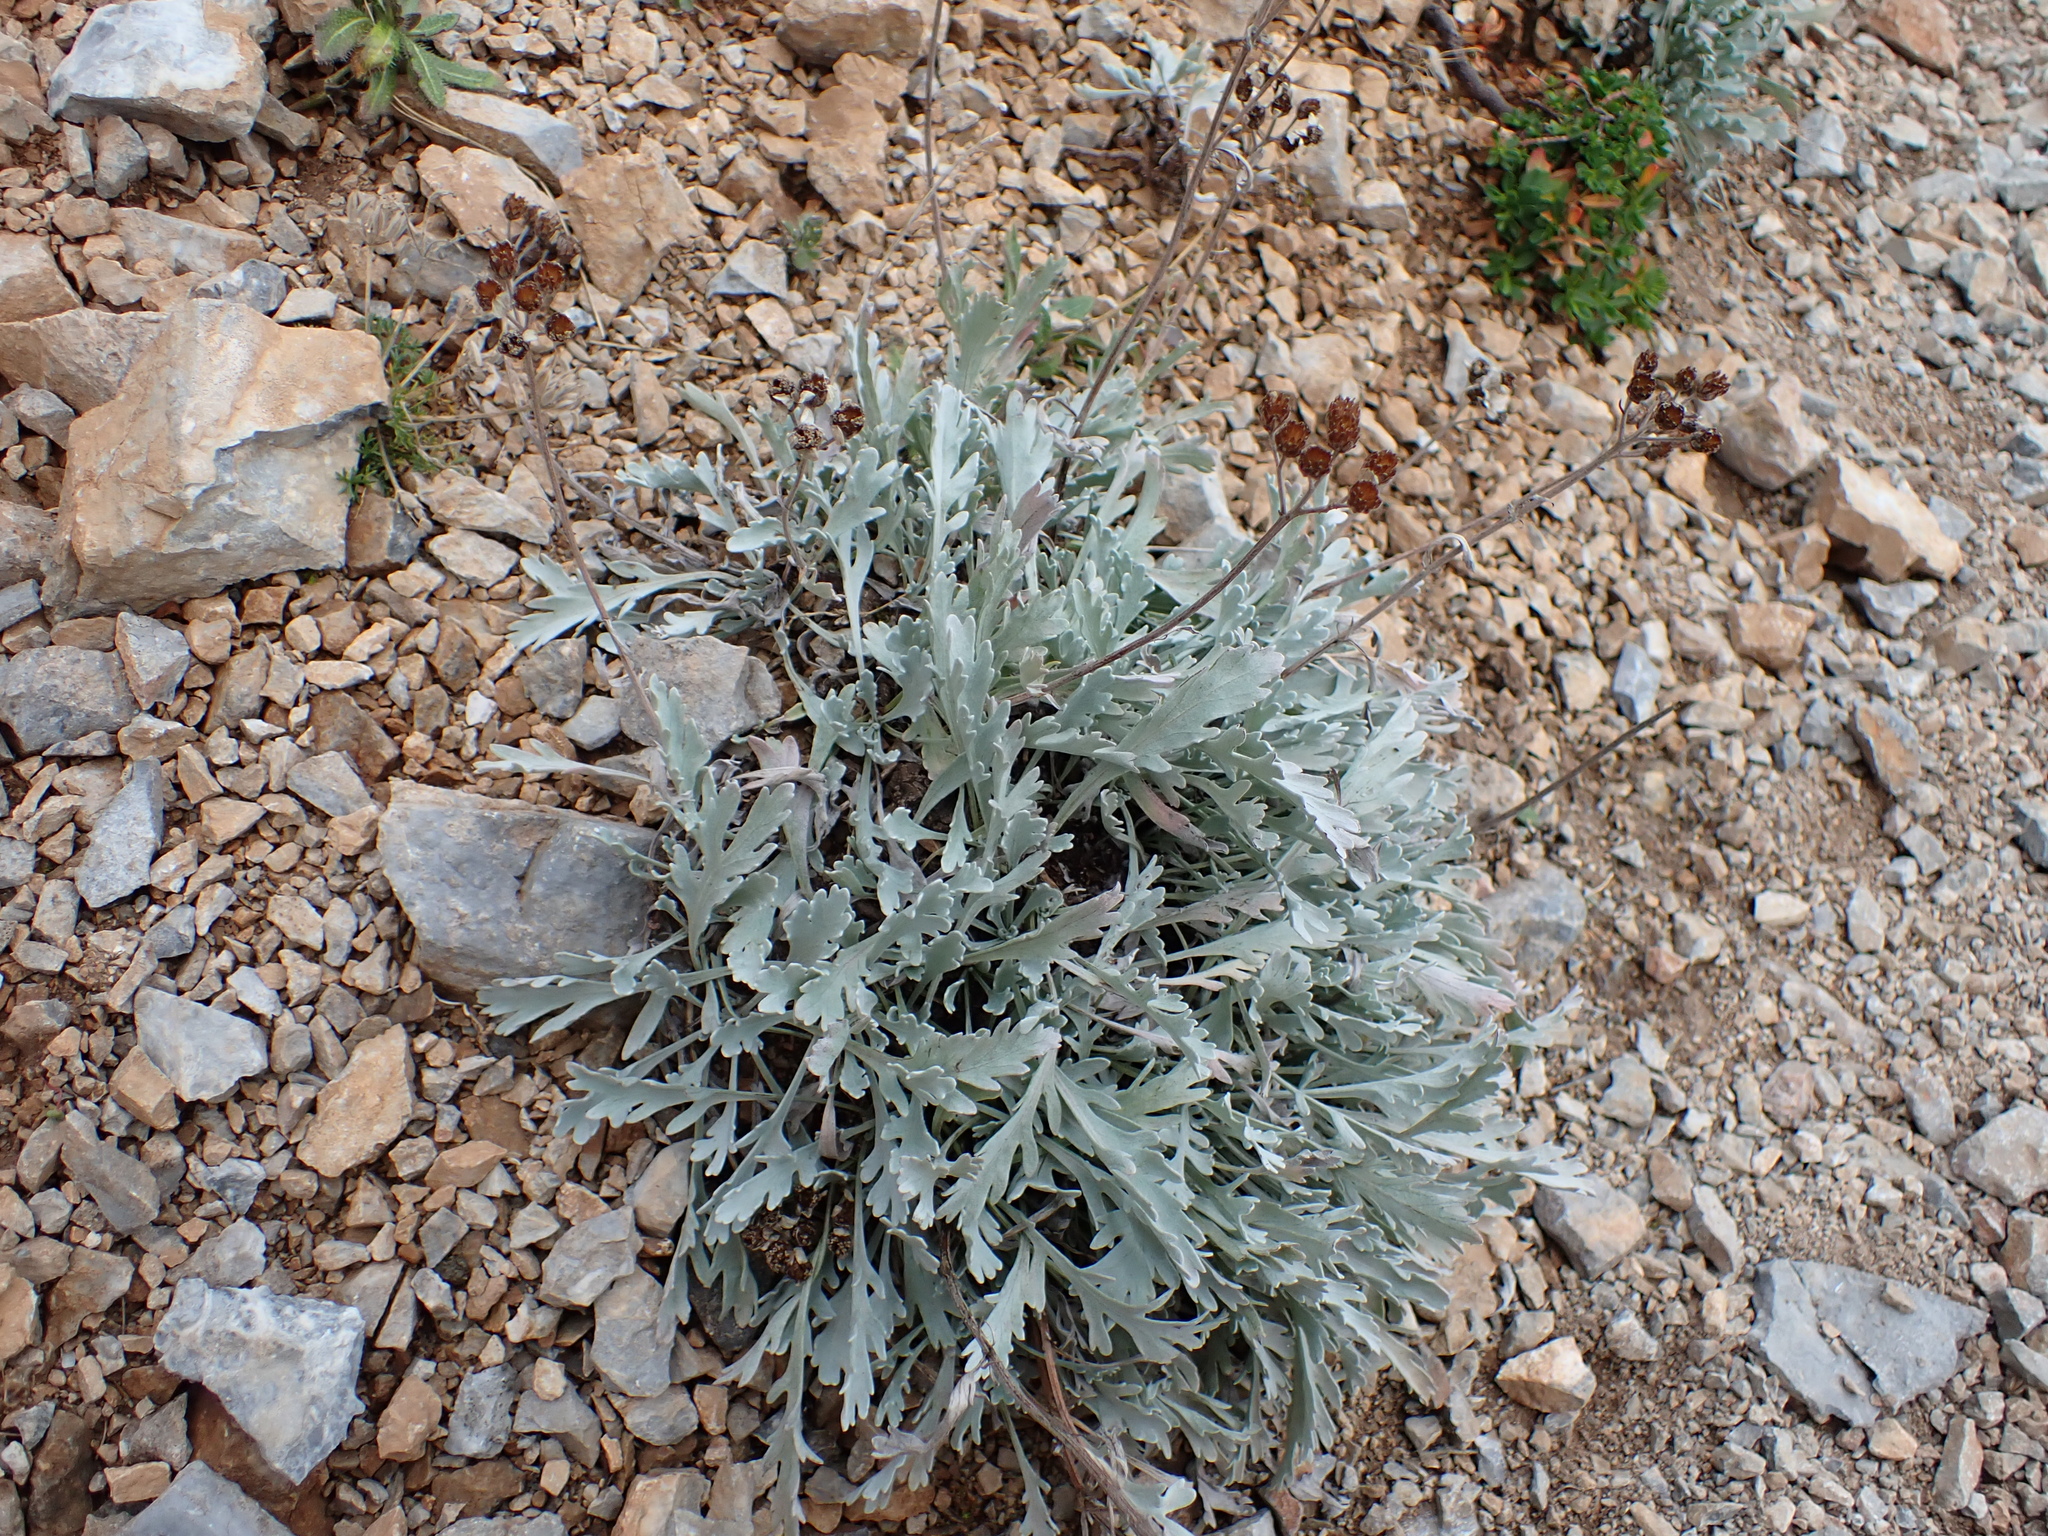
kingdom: Plantae
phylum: Tracheophyta
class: Magnoliopsida
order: Asterales
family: Asteraceae
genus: Achillea
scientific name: Achillea clavennae
